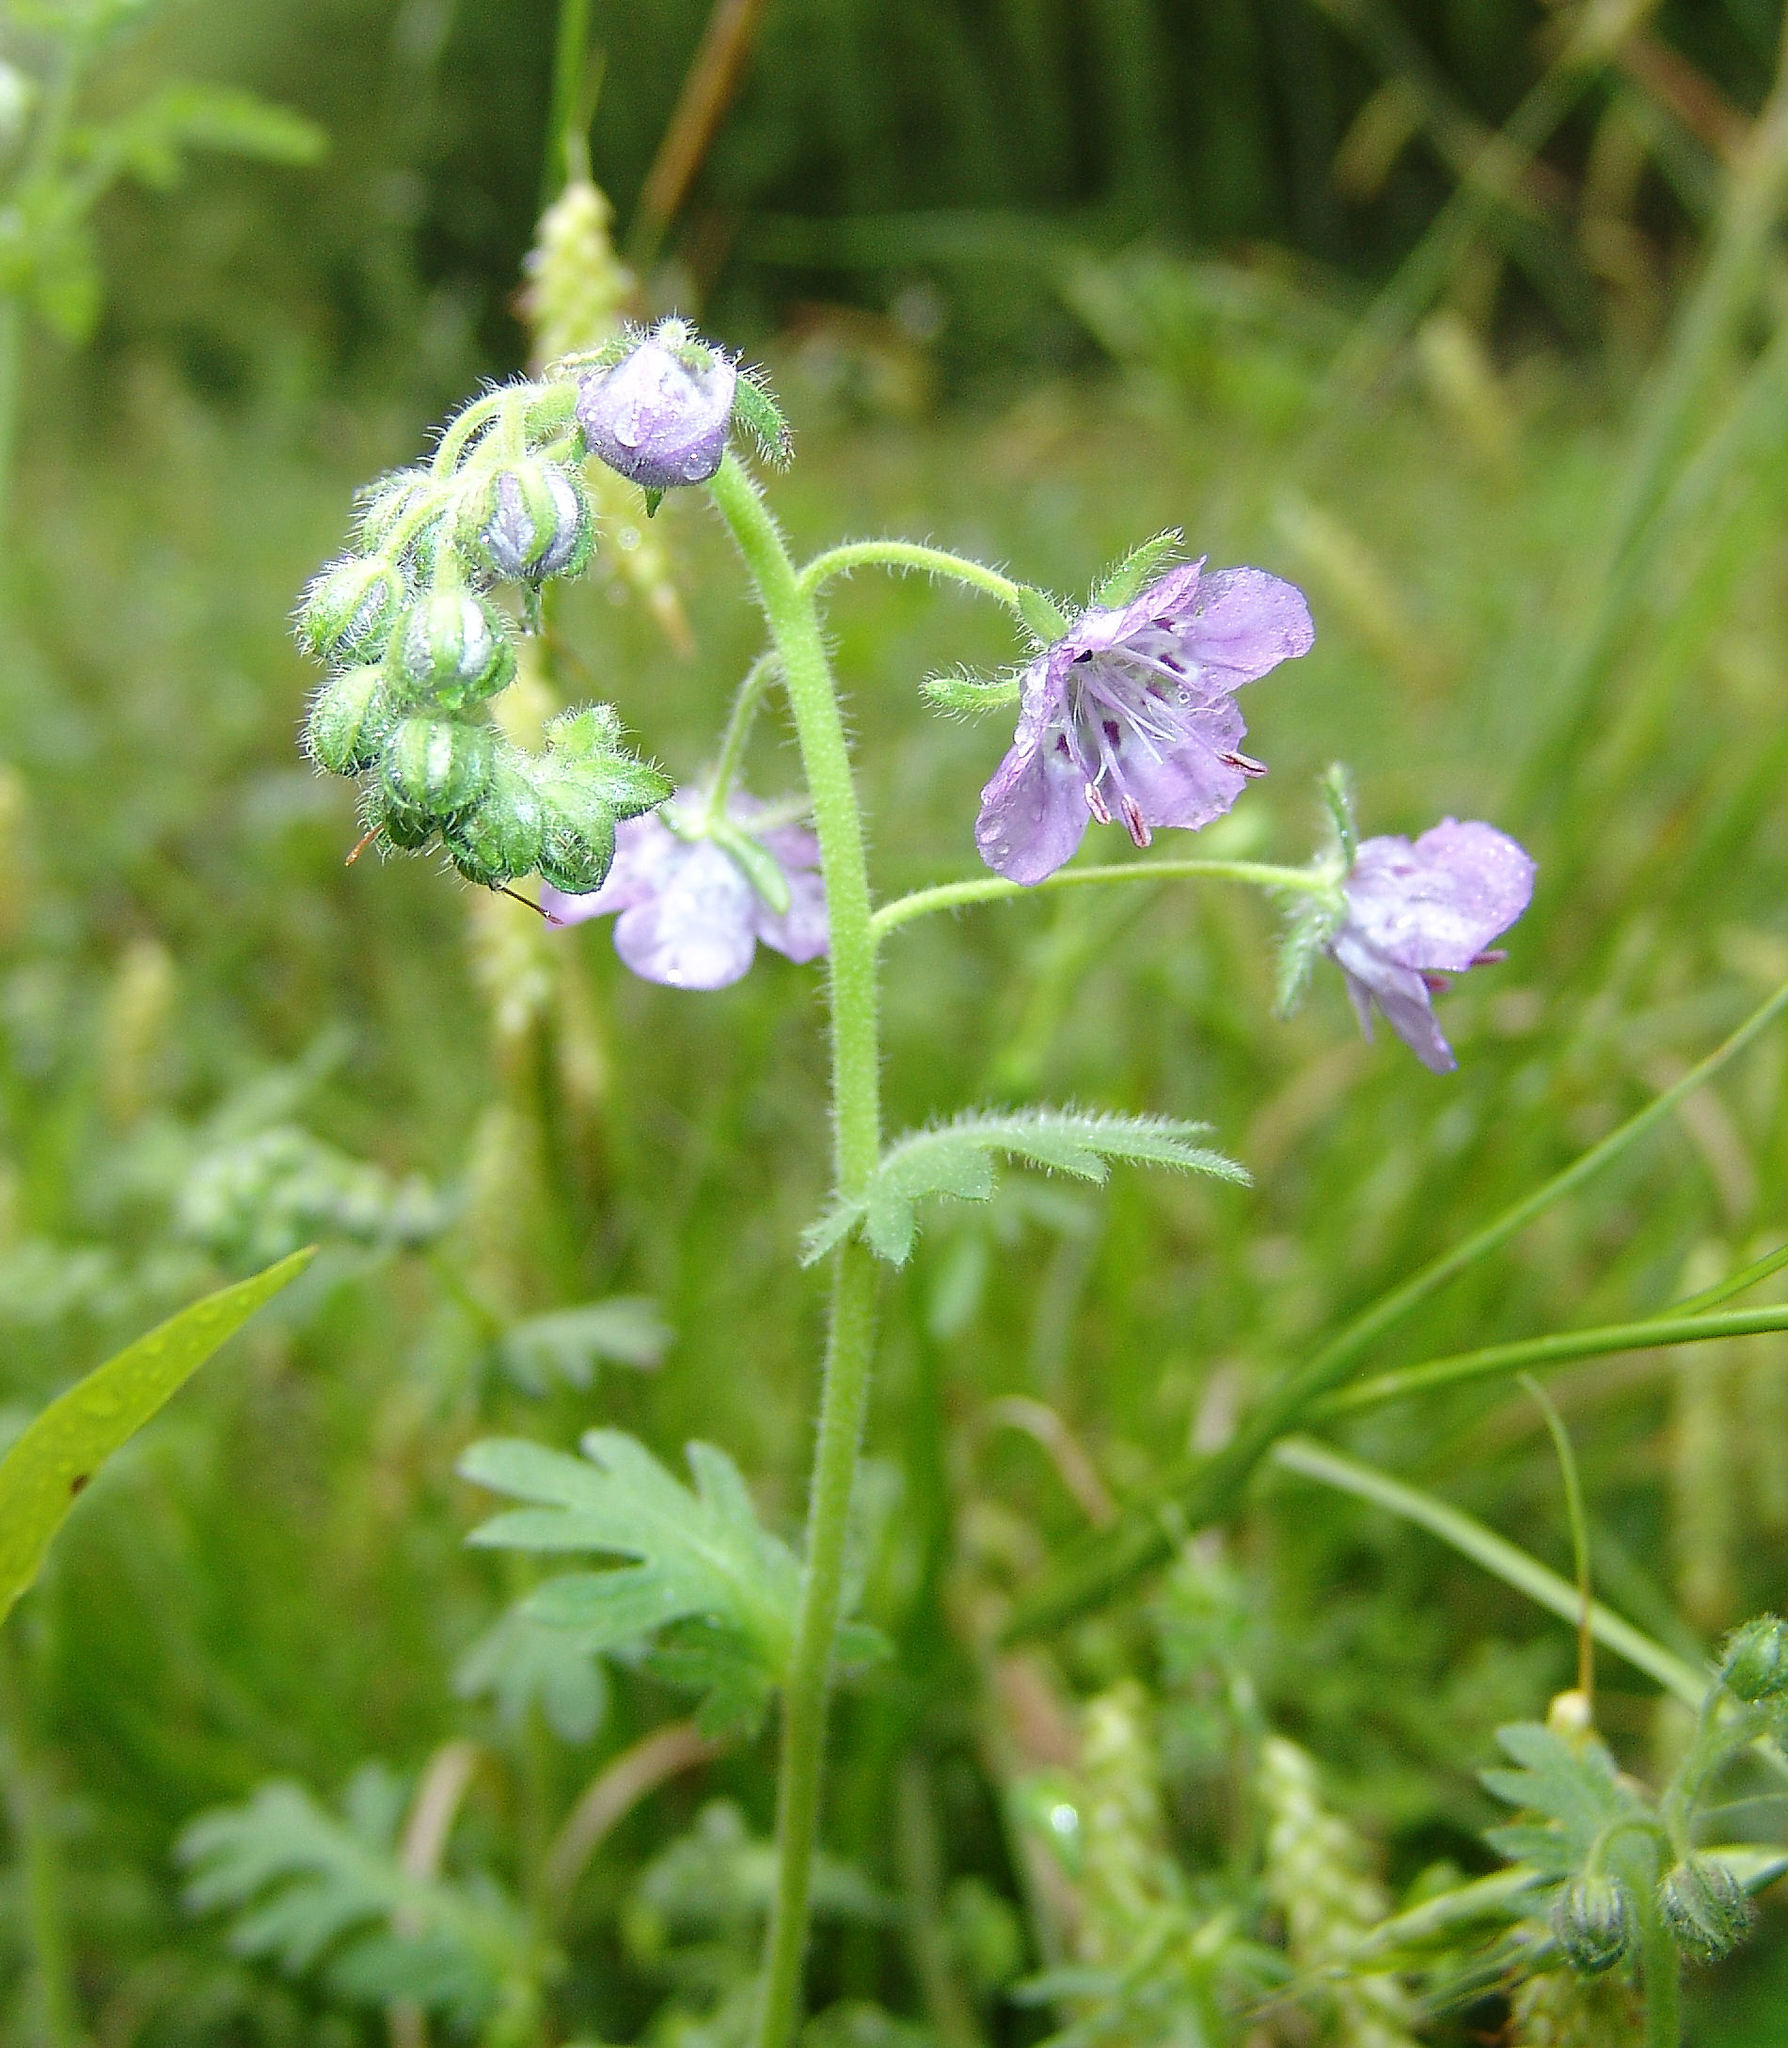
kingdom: Plantae
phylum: Tracheophyta
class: Magnoliopsida
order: Boraginales
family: Hydrophyllaceae
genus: Phacelia
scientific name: Phacelia hirsuta
